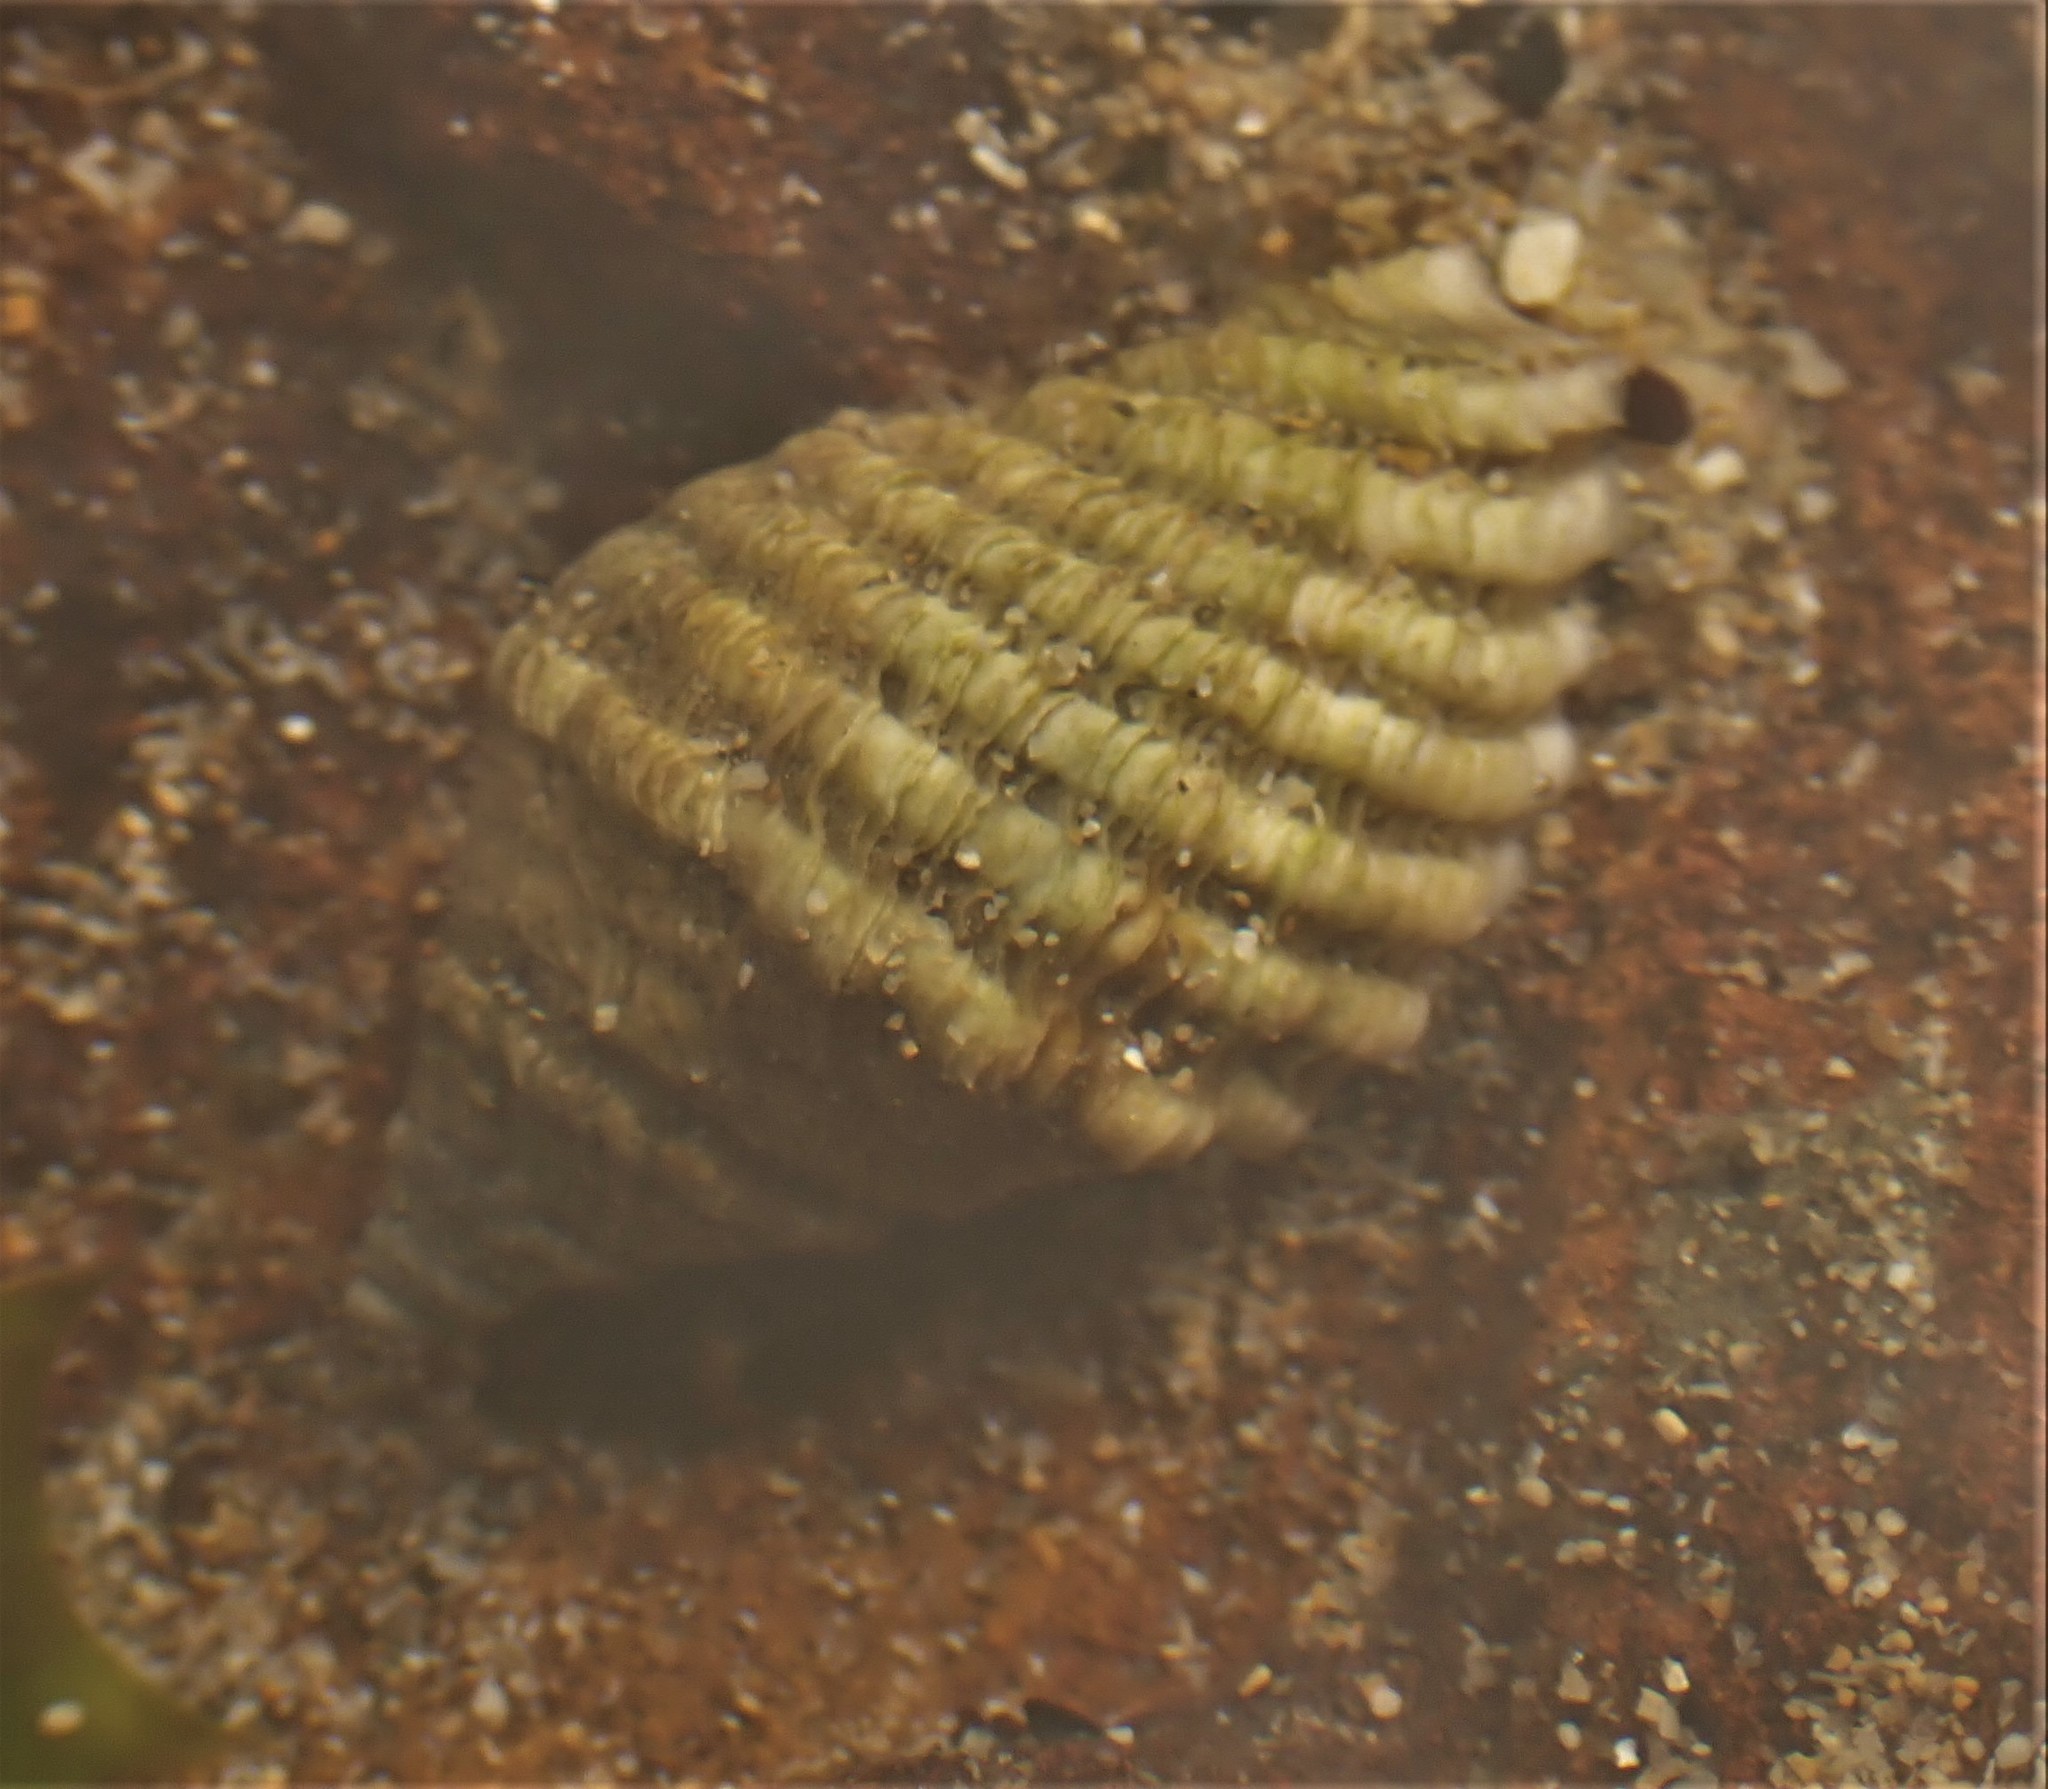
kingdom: Animalia
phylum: Mollusca
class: Gastropoda
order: Neogastropoda
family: Muricidae
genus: Bedeva
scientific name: Bedeva vinosa
